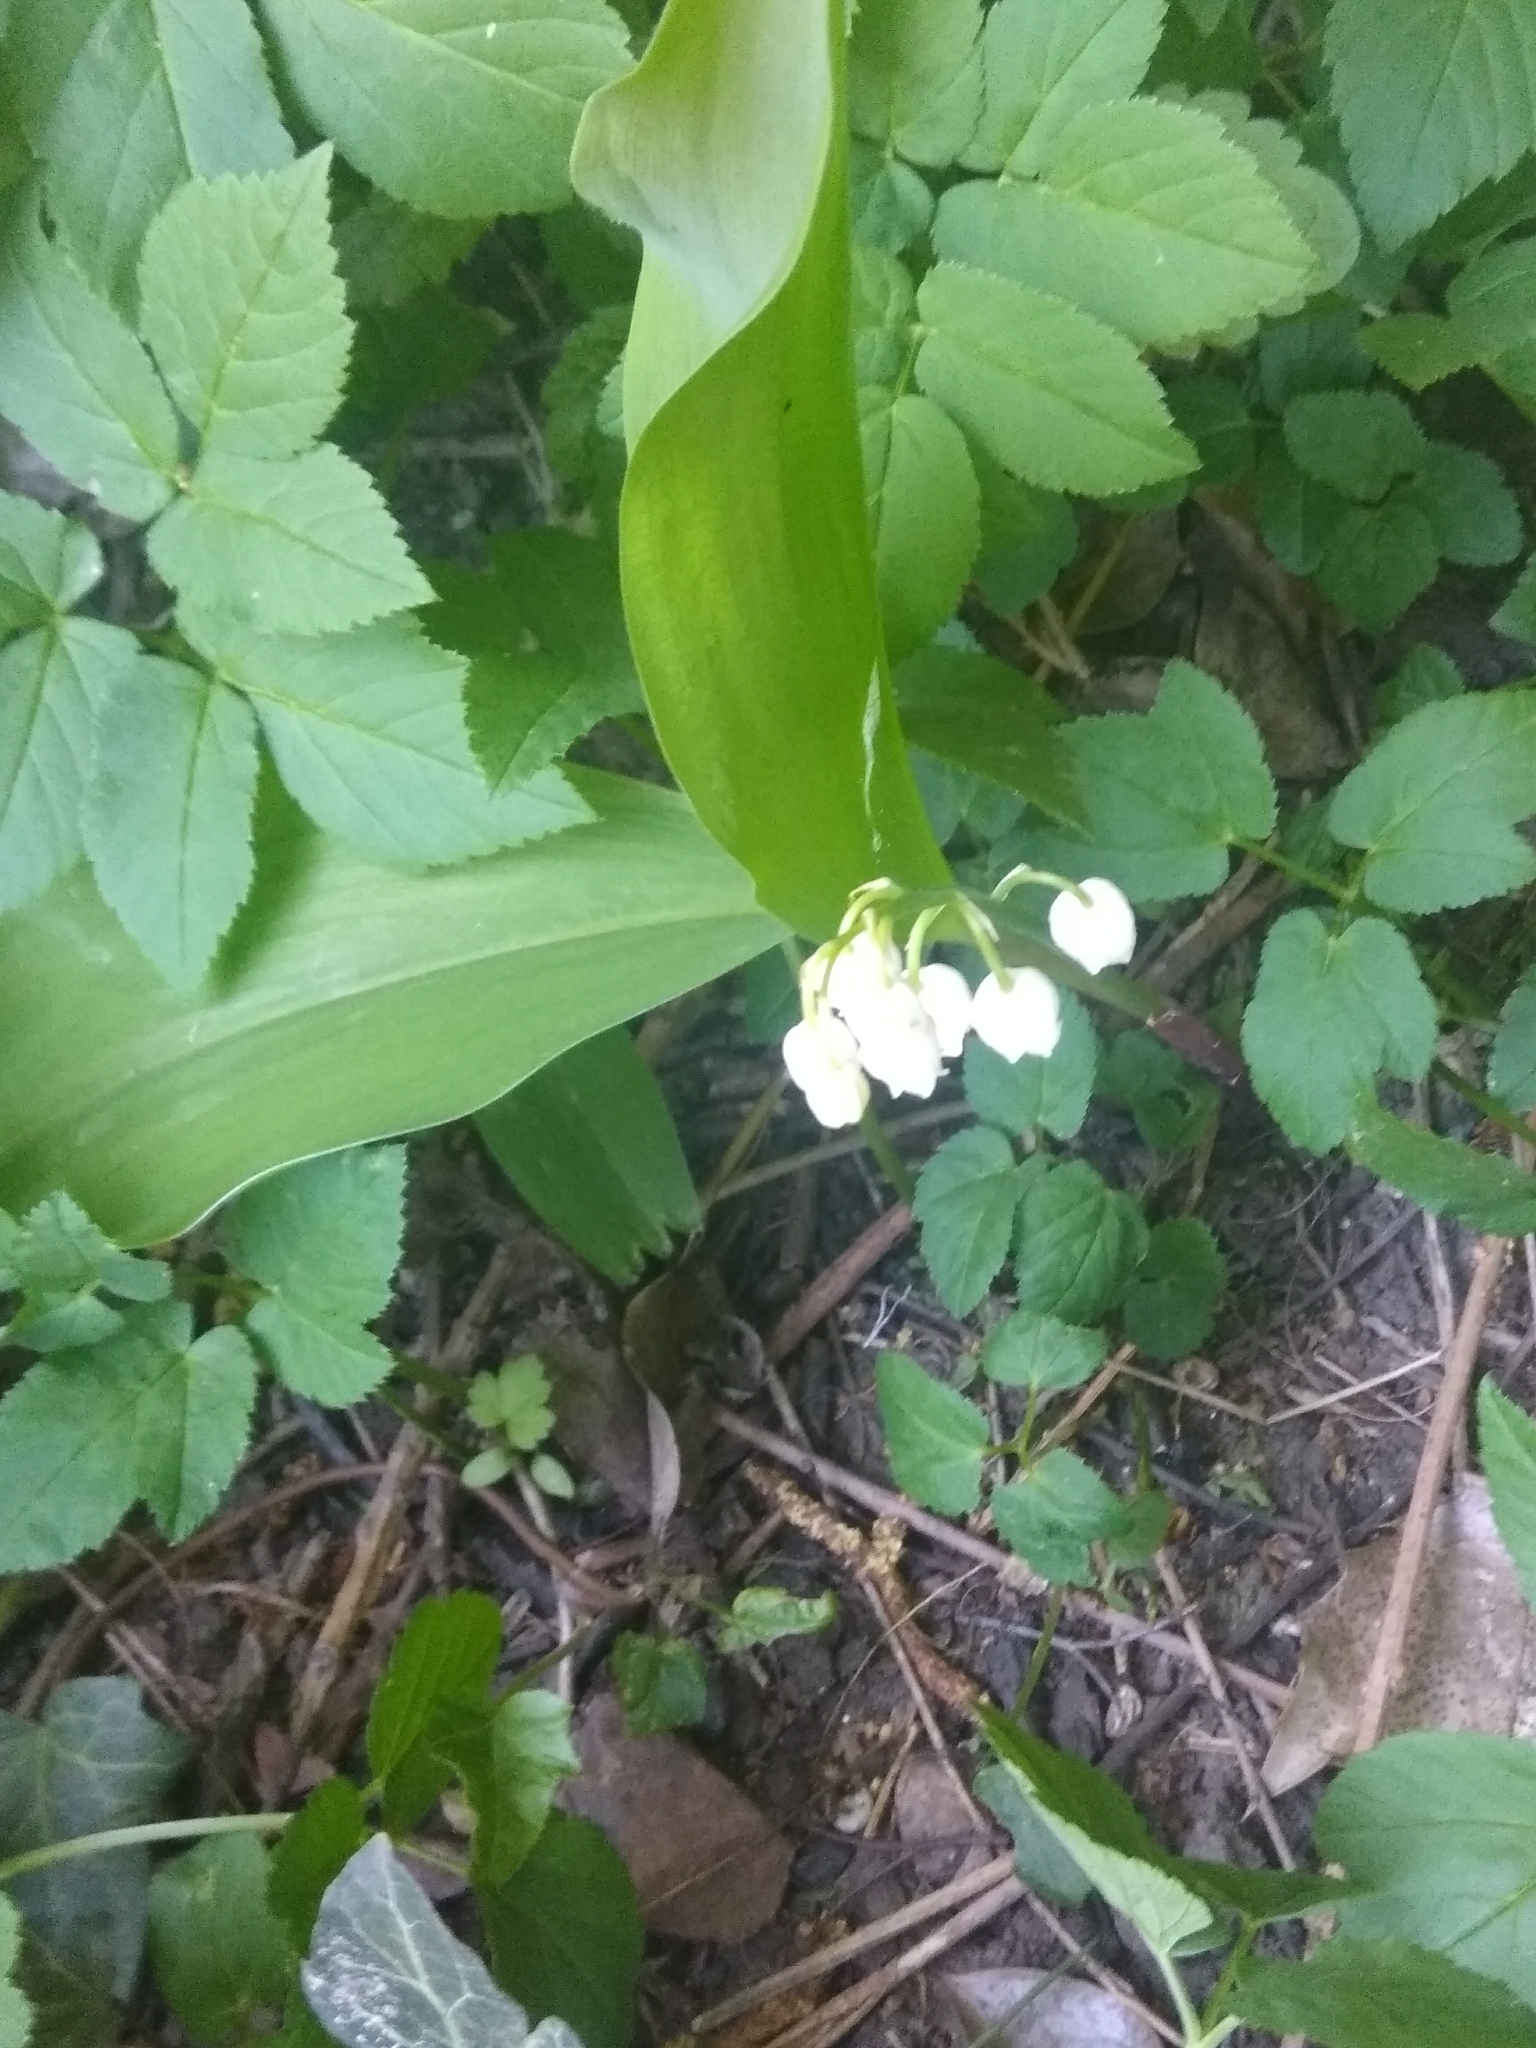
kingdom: Plantae
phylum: Tracheophyta
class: Liliopsida
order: Asparagales
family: Asparagaceae
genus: Convallaria
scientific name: Convallaria majalis
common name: Lily-of-the-valley
